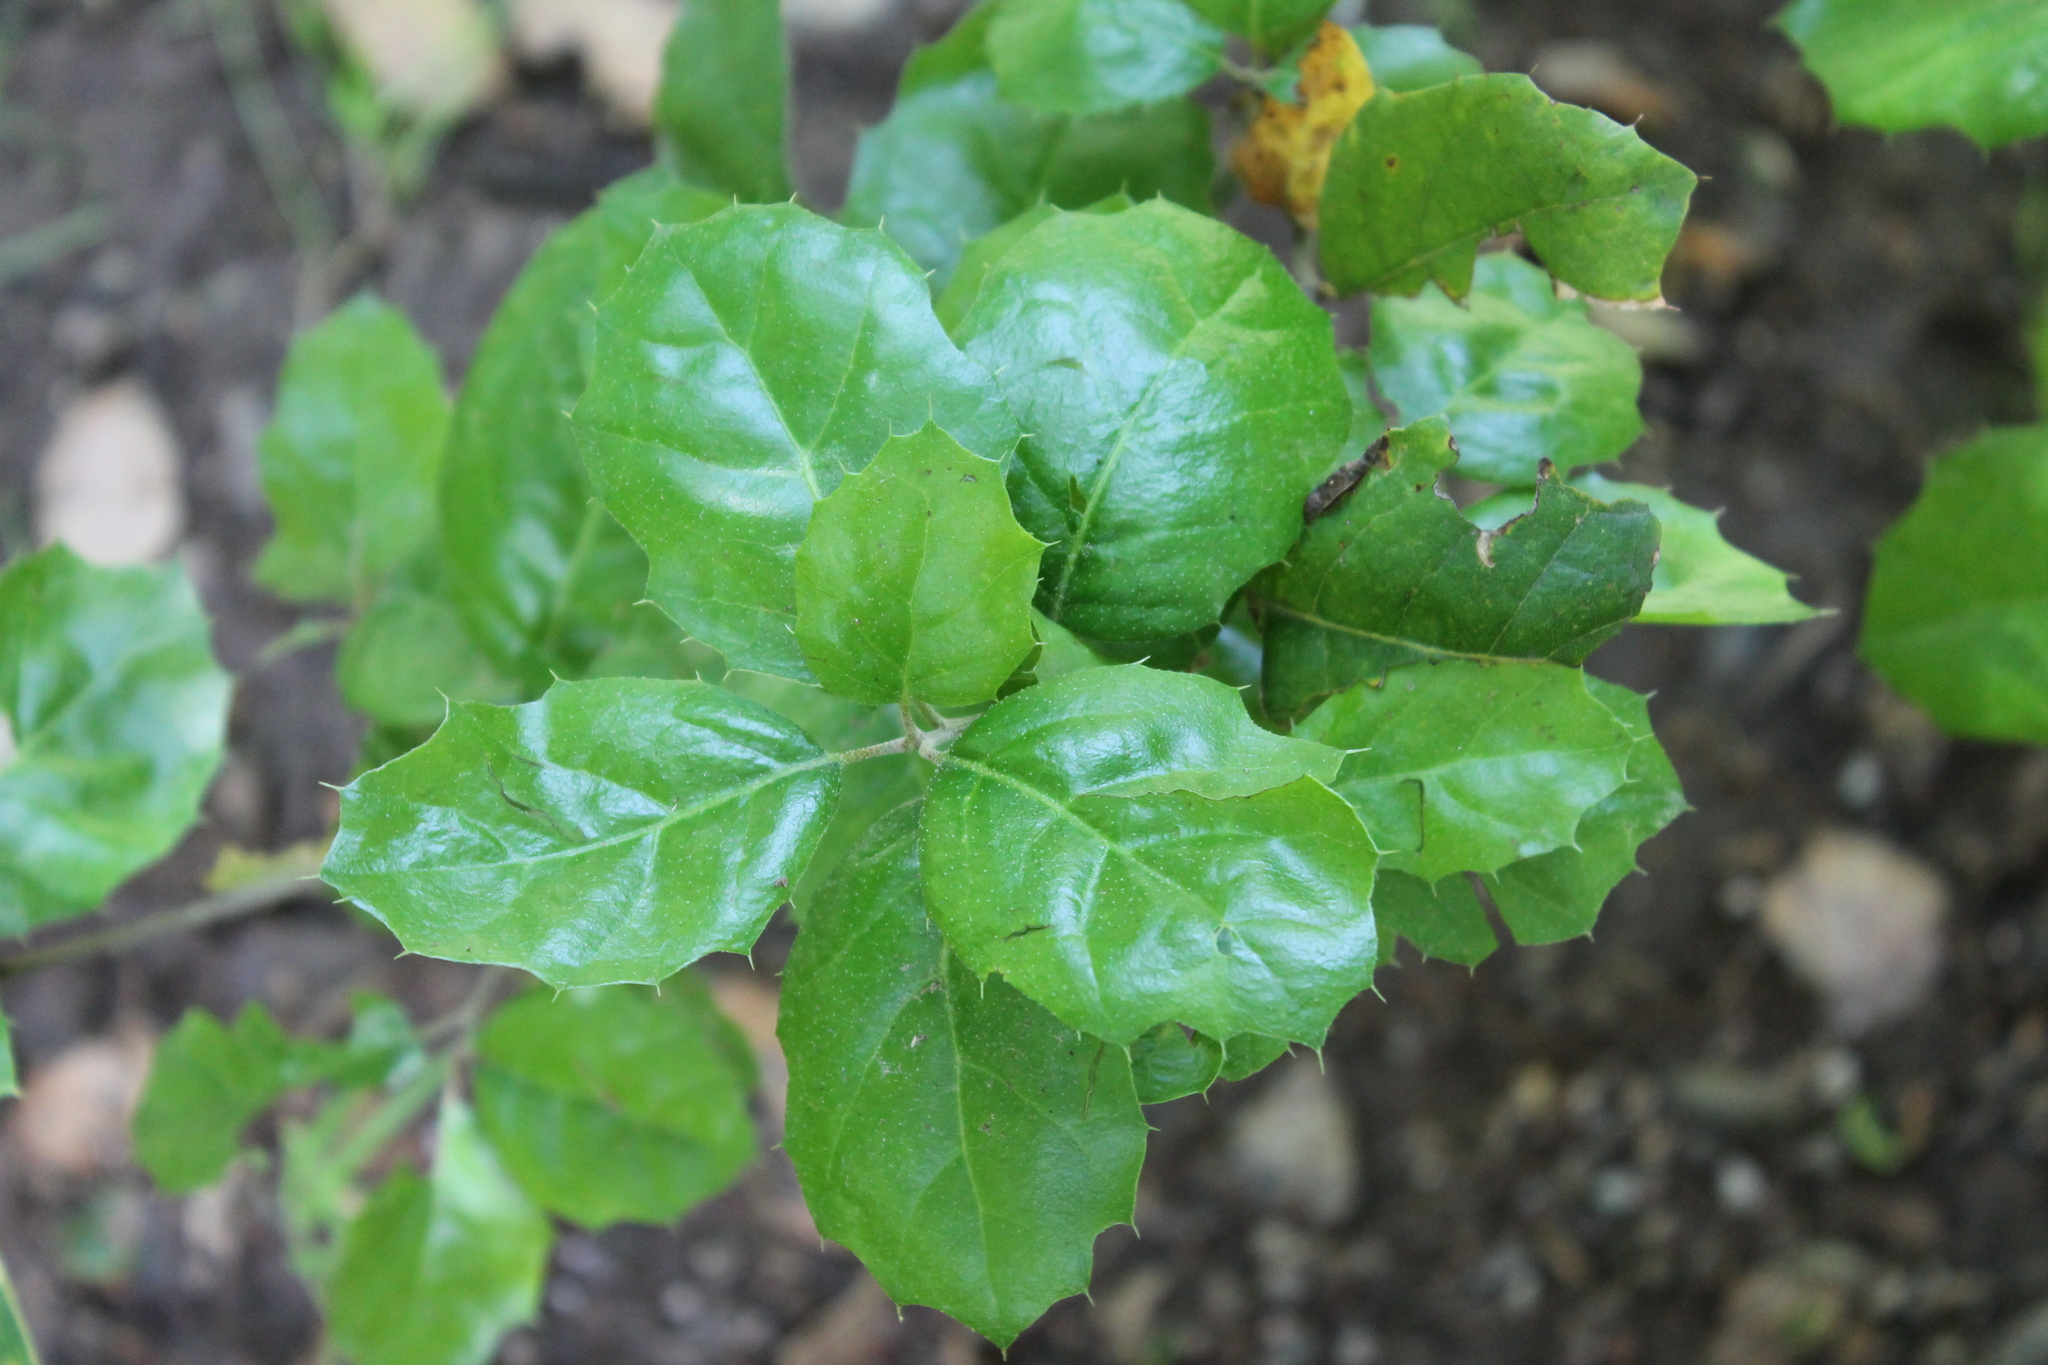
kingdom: Plantae
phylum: Tracheophyta
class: Magnoliopsida
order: Fagales
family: Fagaceae
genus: Quercus
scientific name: Quercus agrifolia
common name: California live oak
